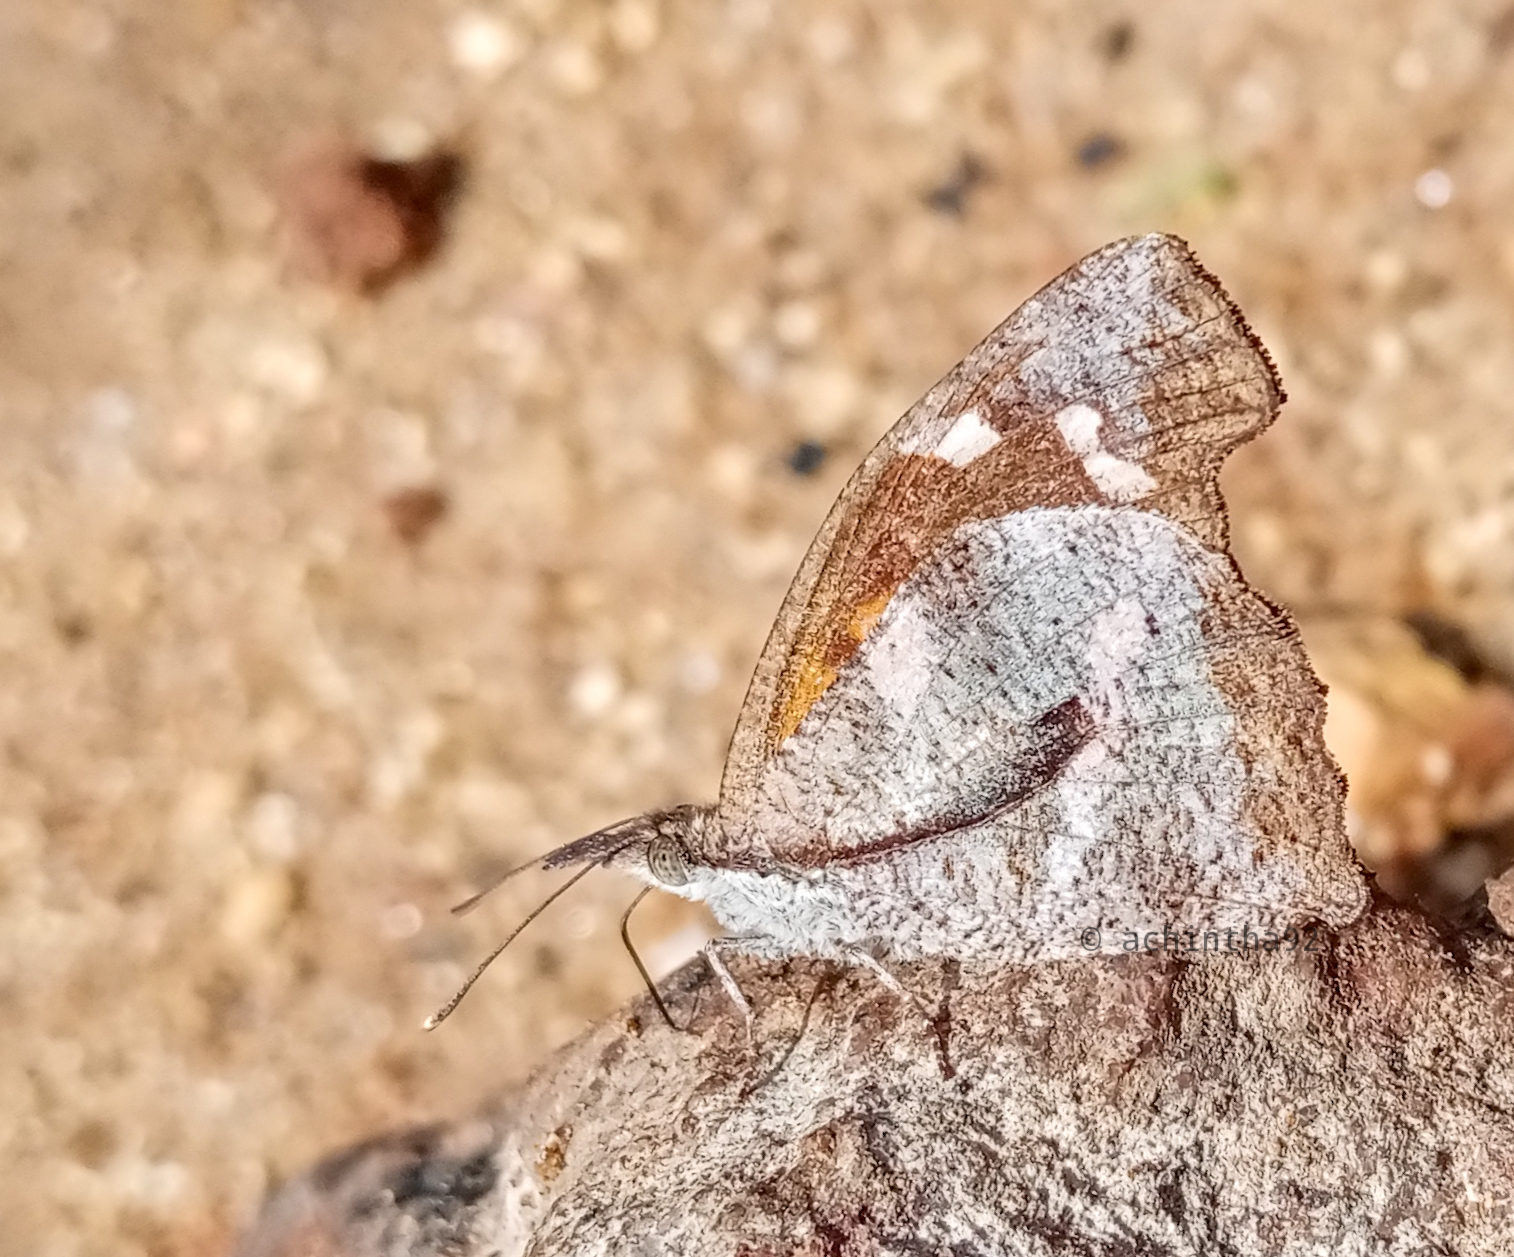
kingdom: Animalia
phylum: Arthropoda
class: Insecta
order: Lepidoptera
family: Nymphalidae
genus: Libythea
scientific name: Libythea laius
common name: African snout
